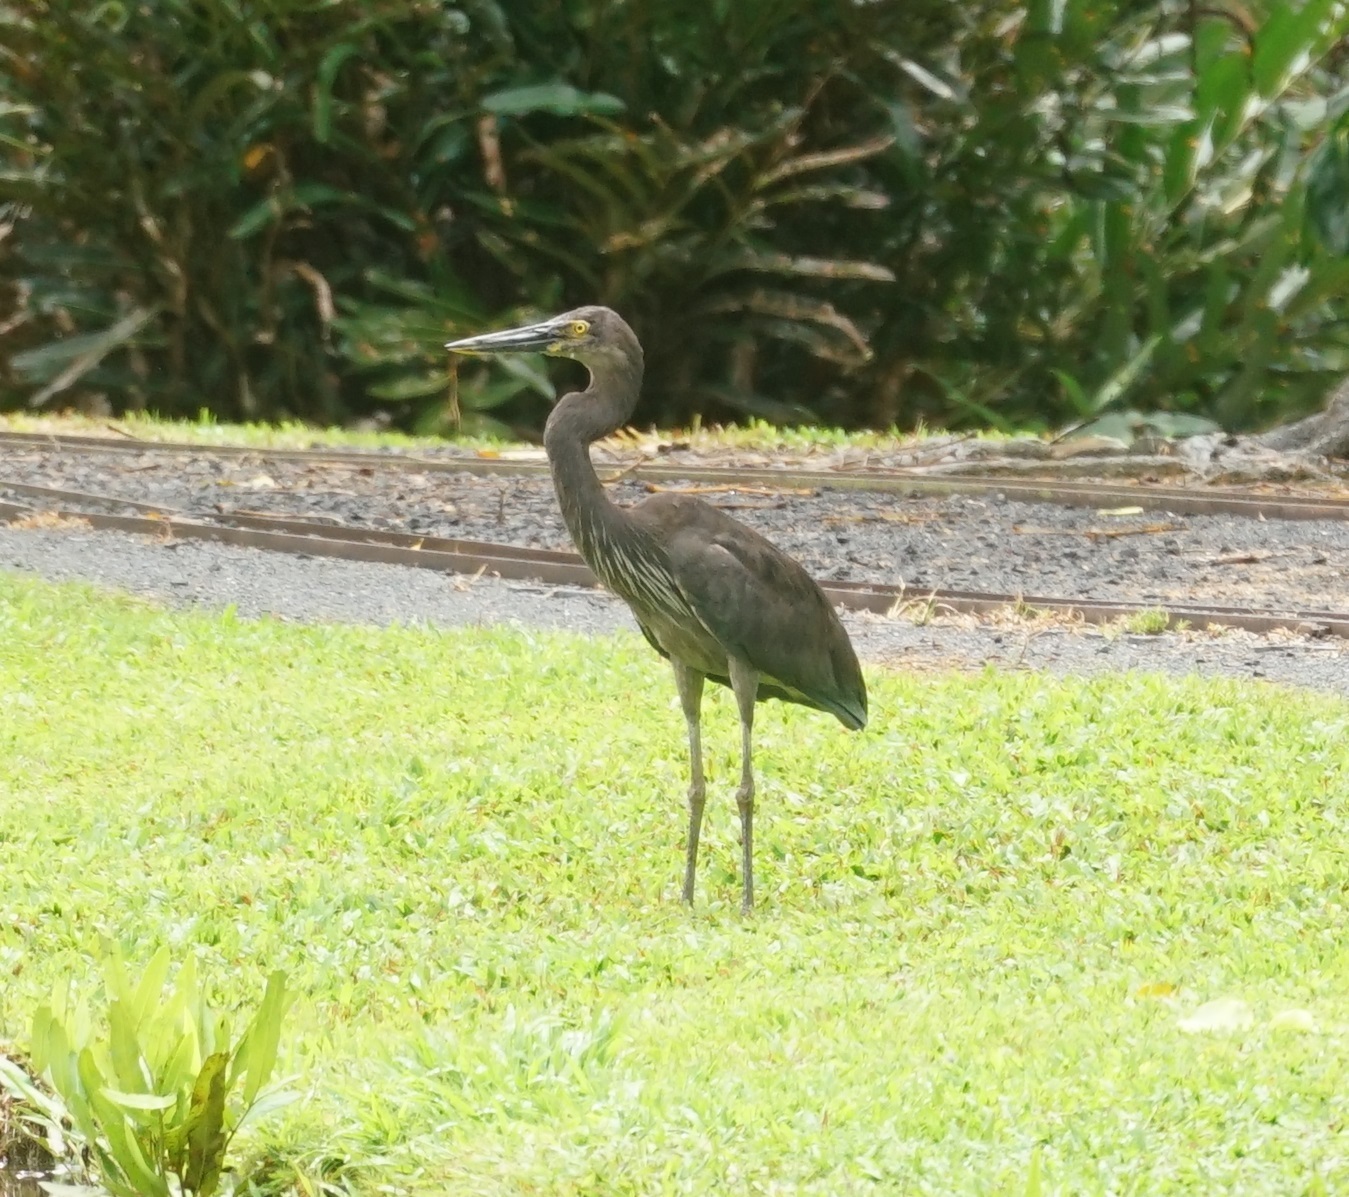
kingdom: Animalia
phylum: Chordata
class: Aves
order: Pelecaniformes
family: Ardeidae
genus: Ardea
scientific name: Ardea sumatrana
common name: Great-billed heron
